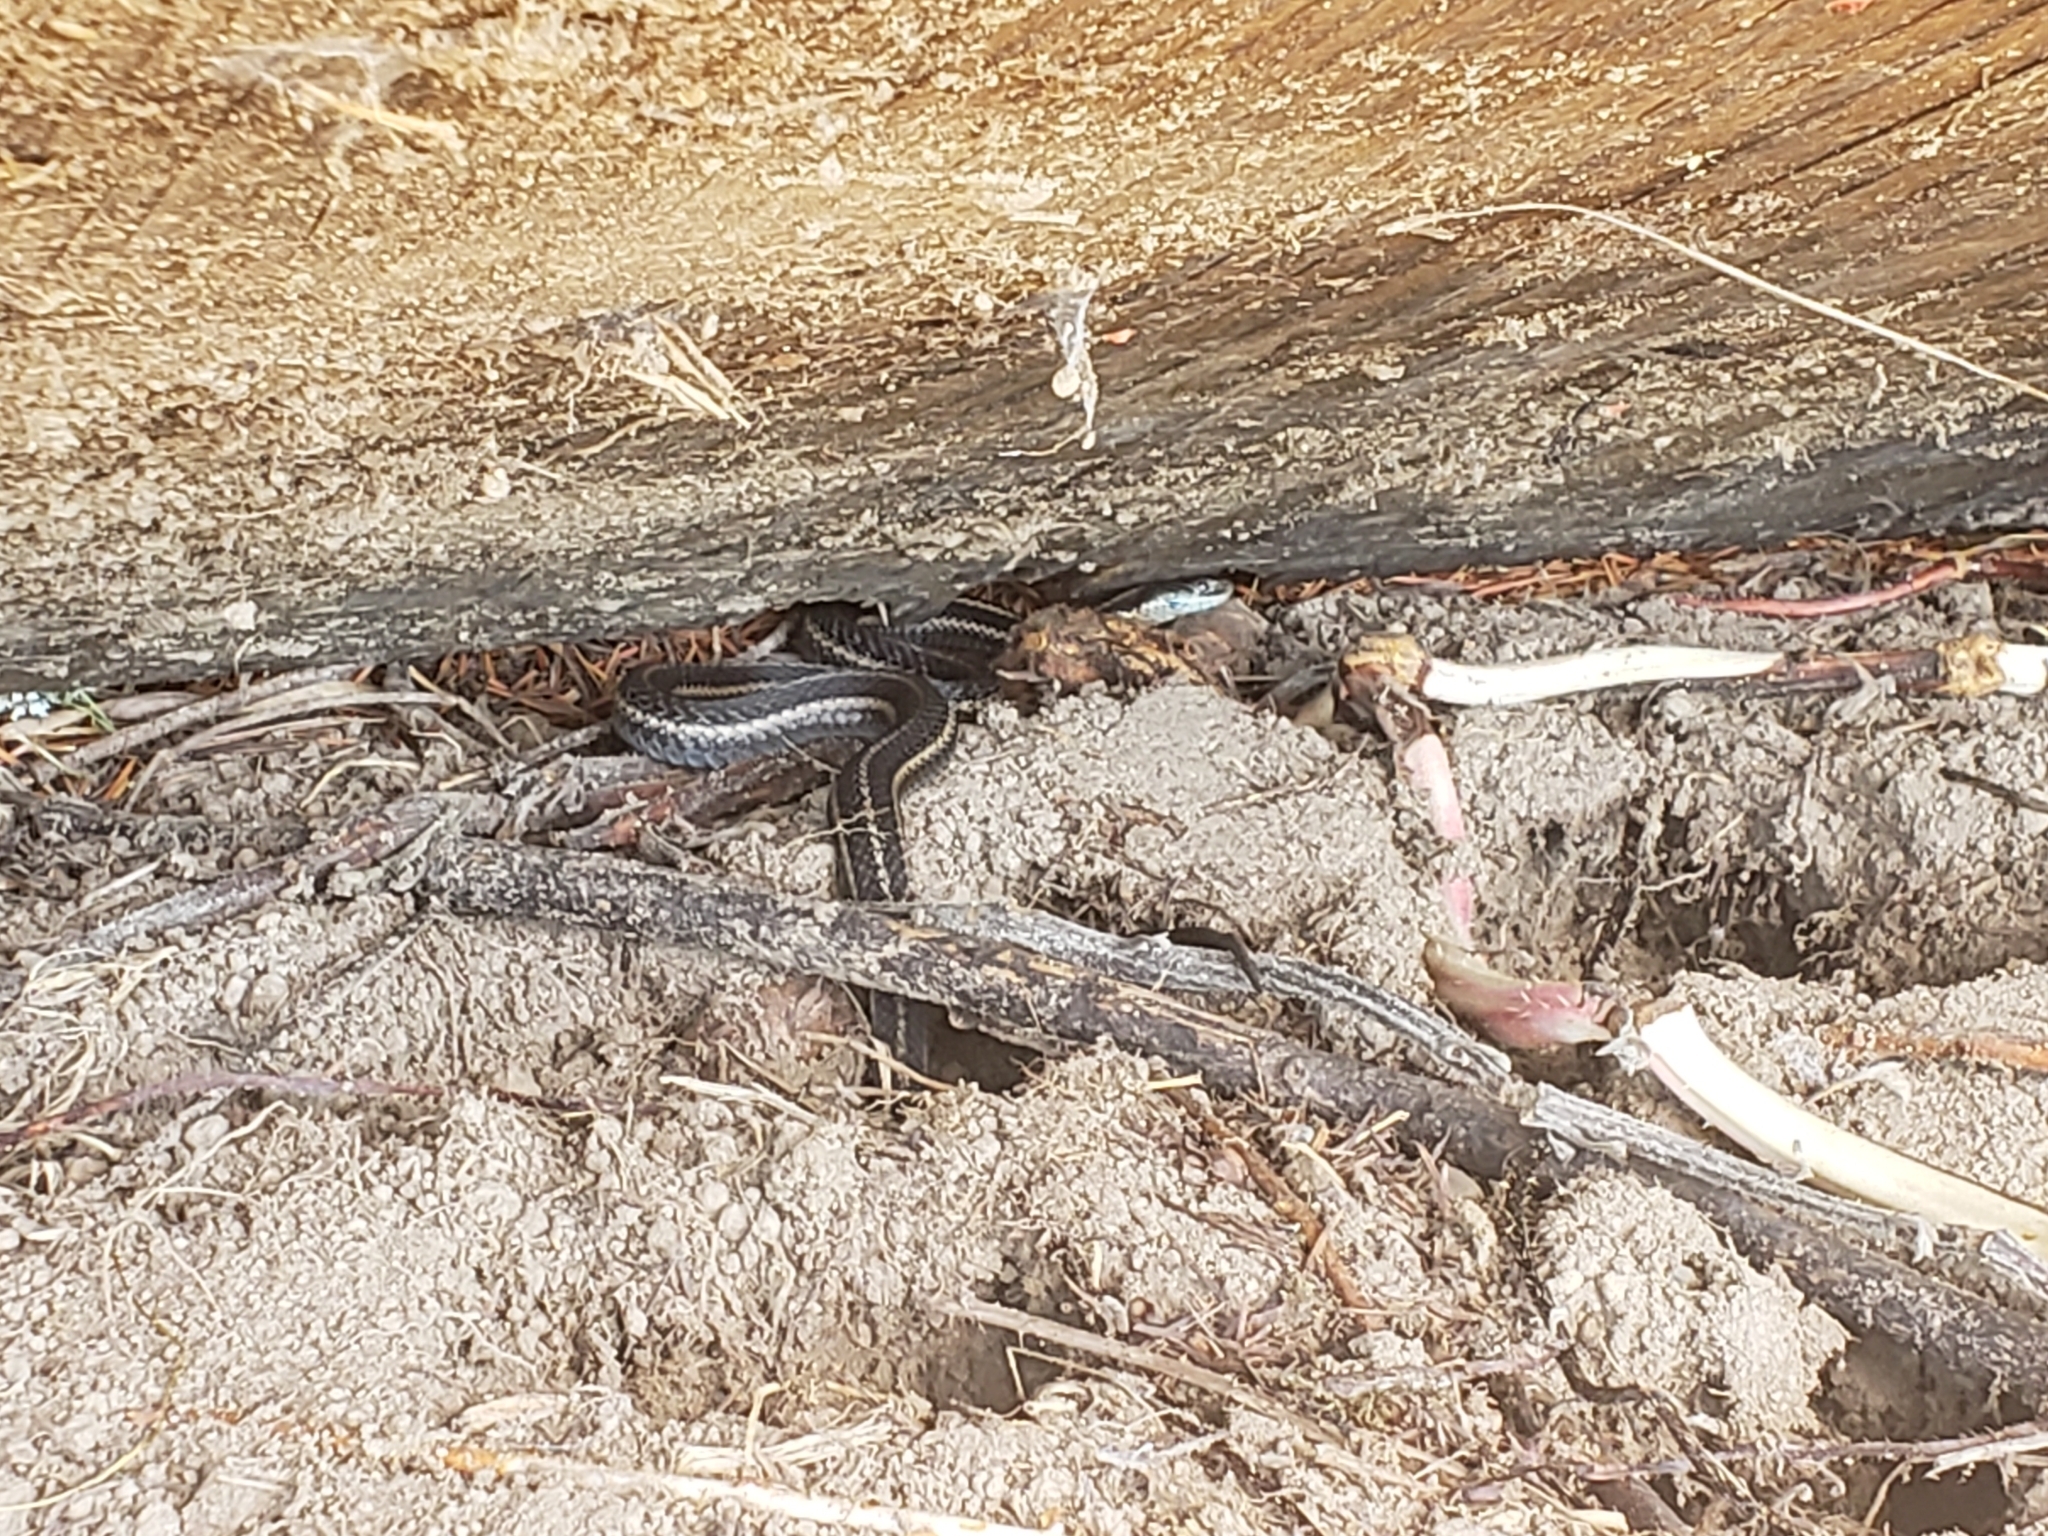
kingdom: Animalia
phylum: Chordata
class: Squamata
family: Colubridae
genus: Thamnophis
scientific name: Thamnophis ordinoides
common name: Northwestern garter snake
